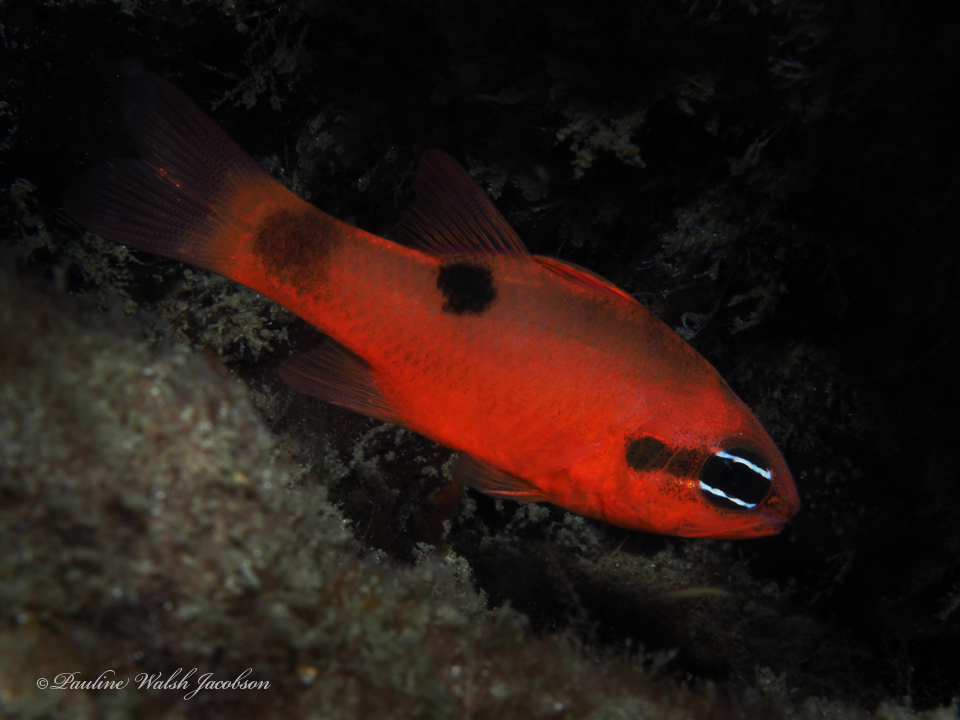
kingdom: Animalia
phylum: Chordata
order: Perciformes
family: Apogonidae
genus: Apogon
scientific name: Apogon maculatus
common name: Flamefish
